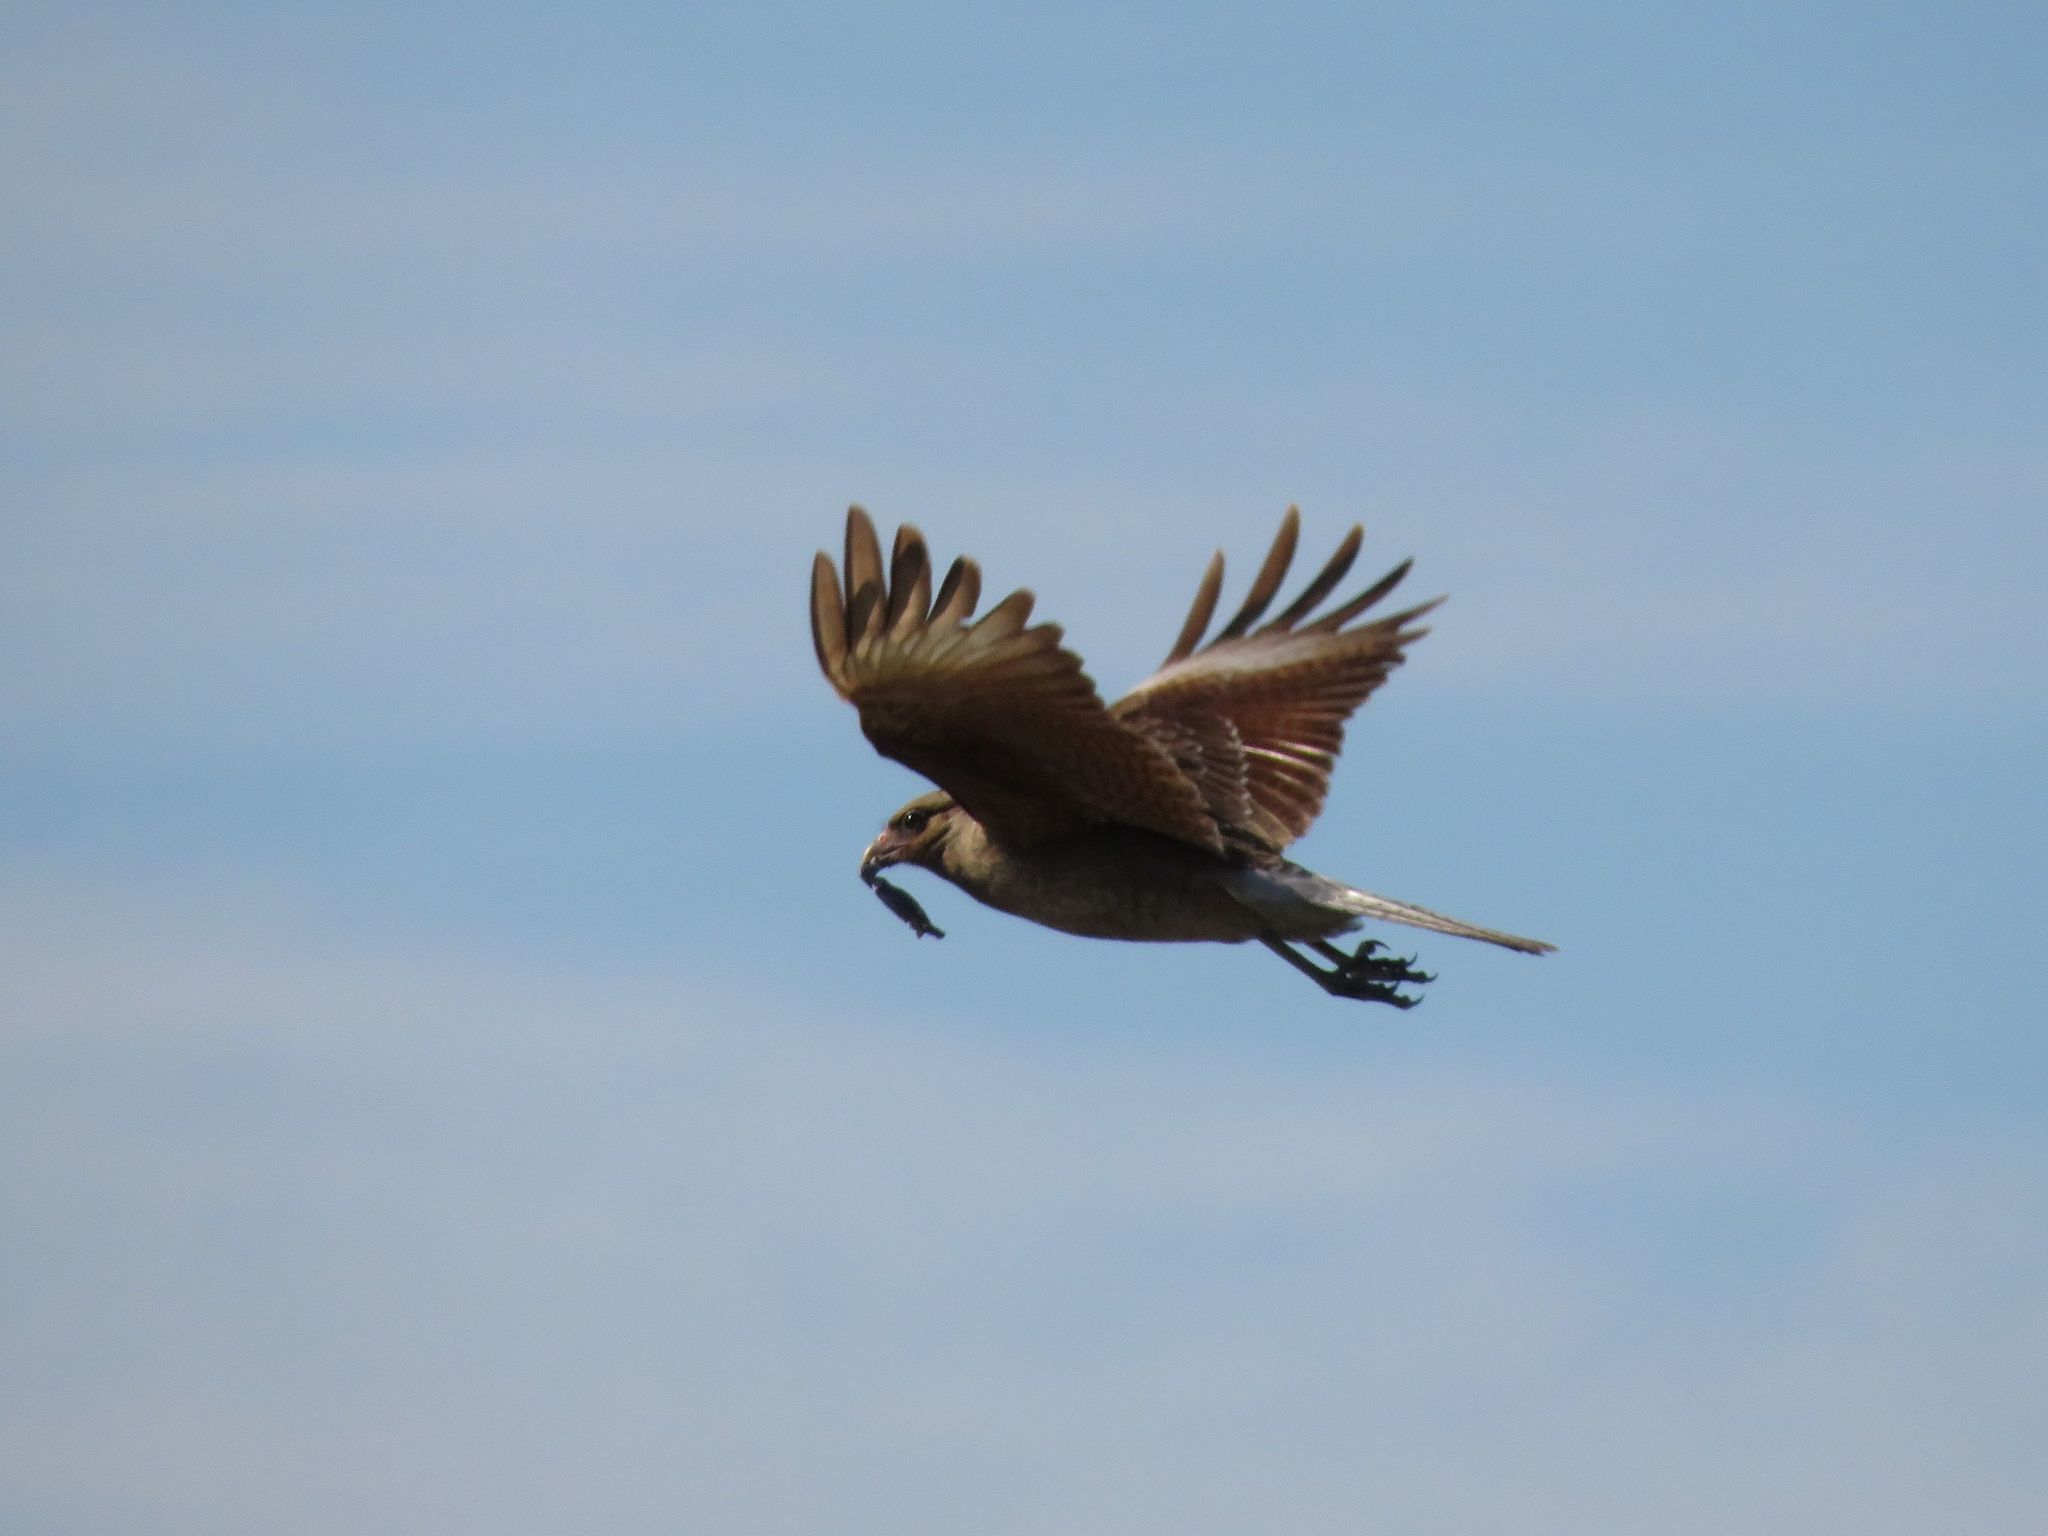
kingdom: Animalia
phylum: Chordata
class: Aves
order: Falconiformes
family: Falconidae
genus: Daptrius
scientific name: Daptrius
